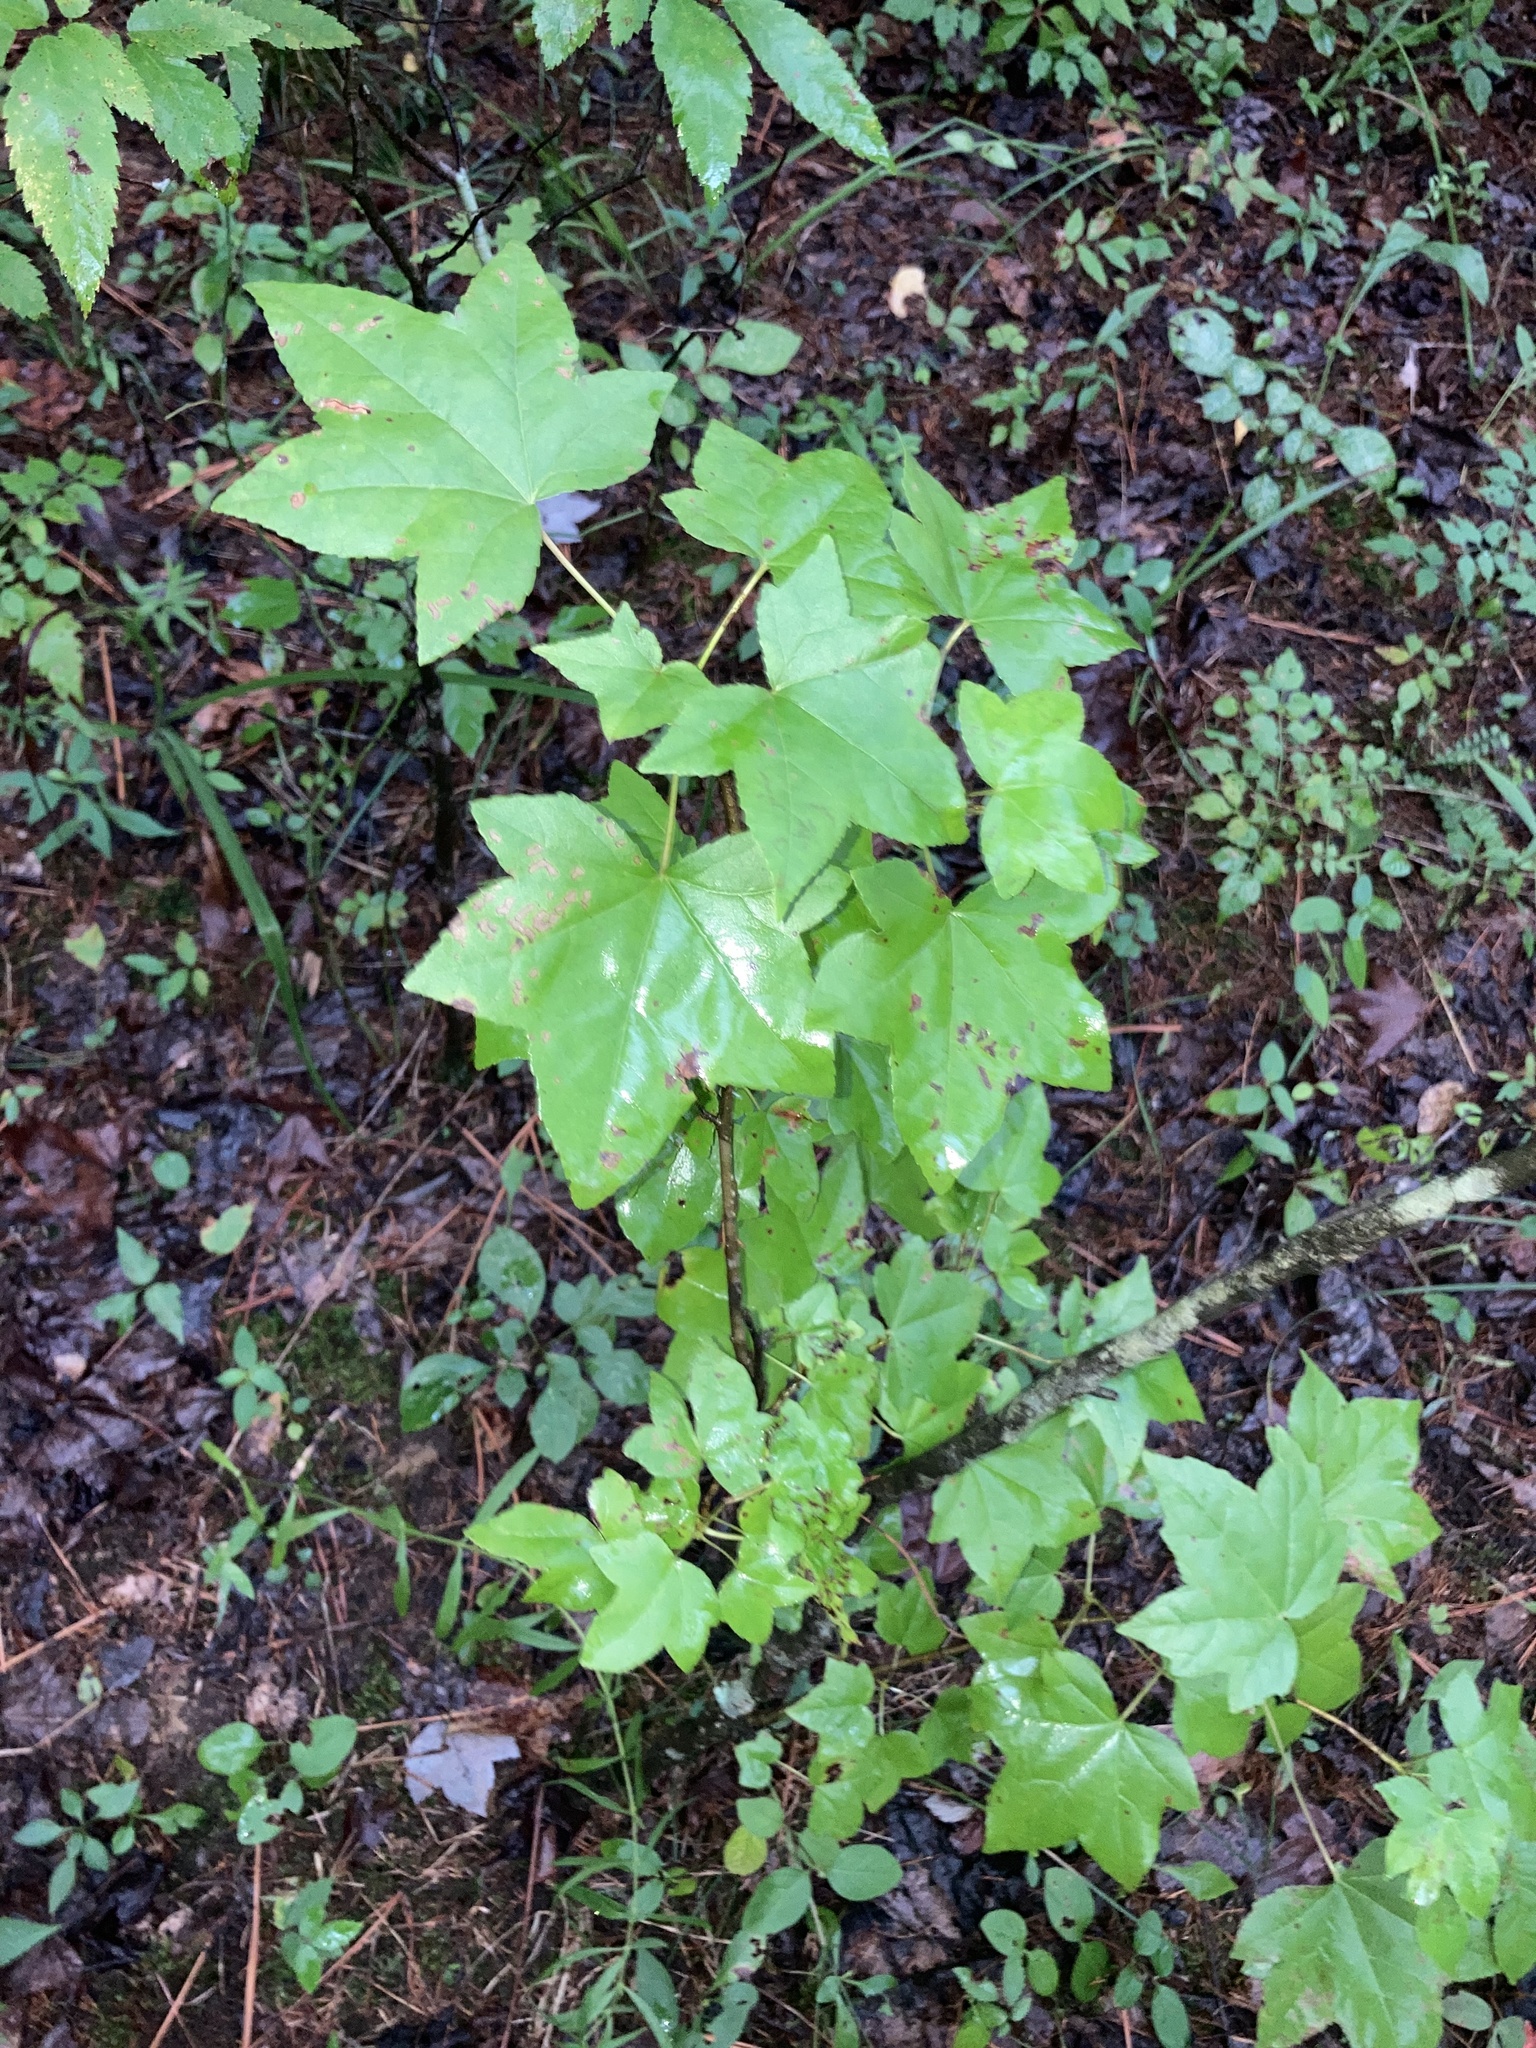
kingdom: Plantae
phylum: Tracheophyta
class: Magnoliopsida
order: Saxifragales
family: Altingiaceae
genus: Liquidambar
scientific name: Liquidambar styraciflua
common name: Sweet gum
